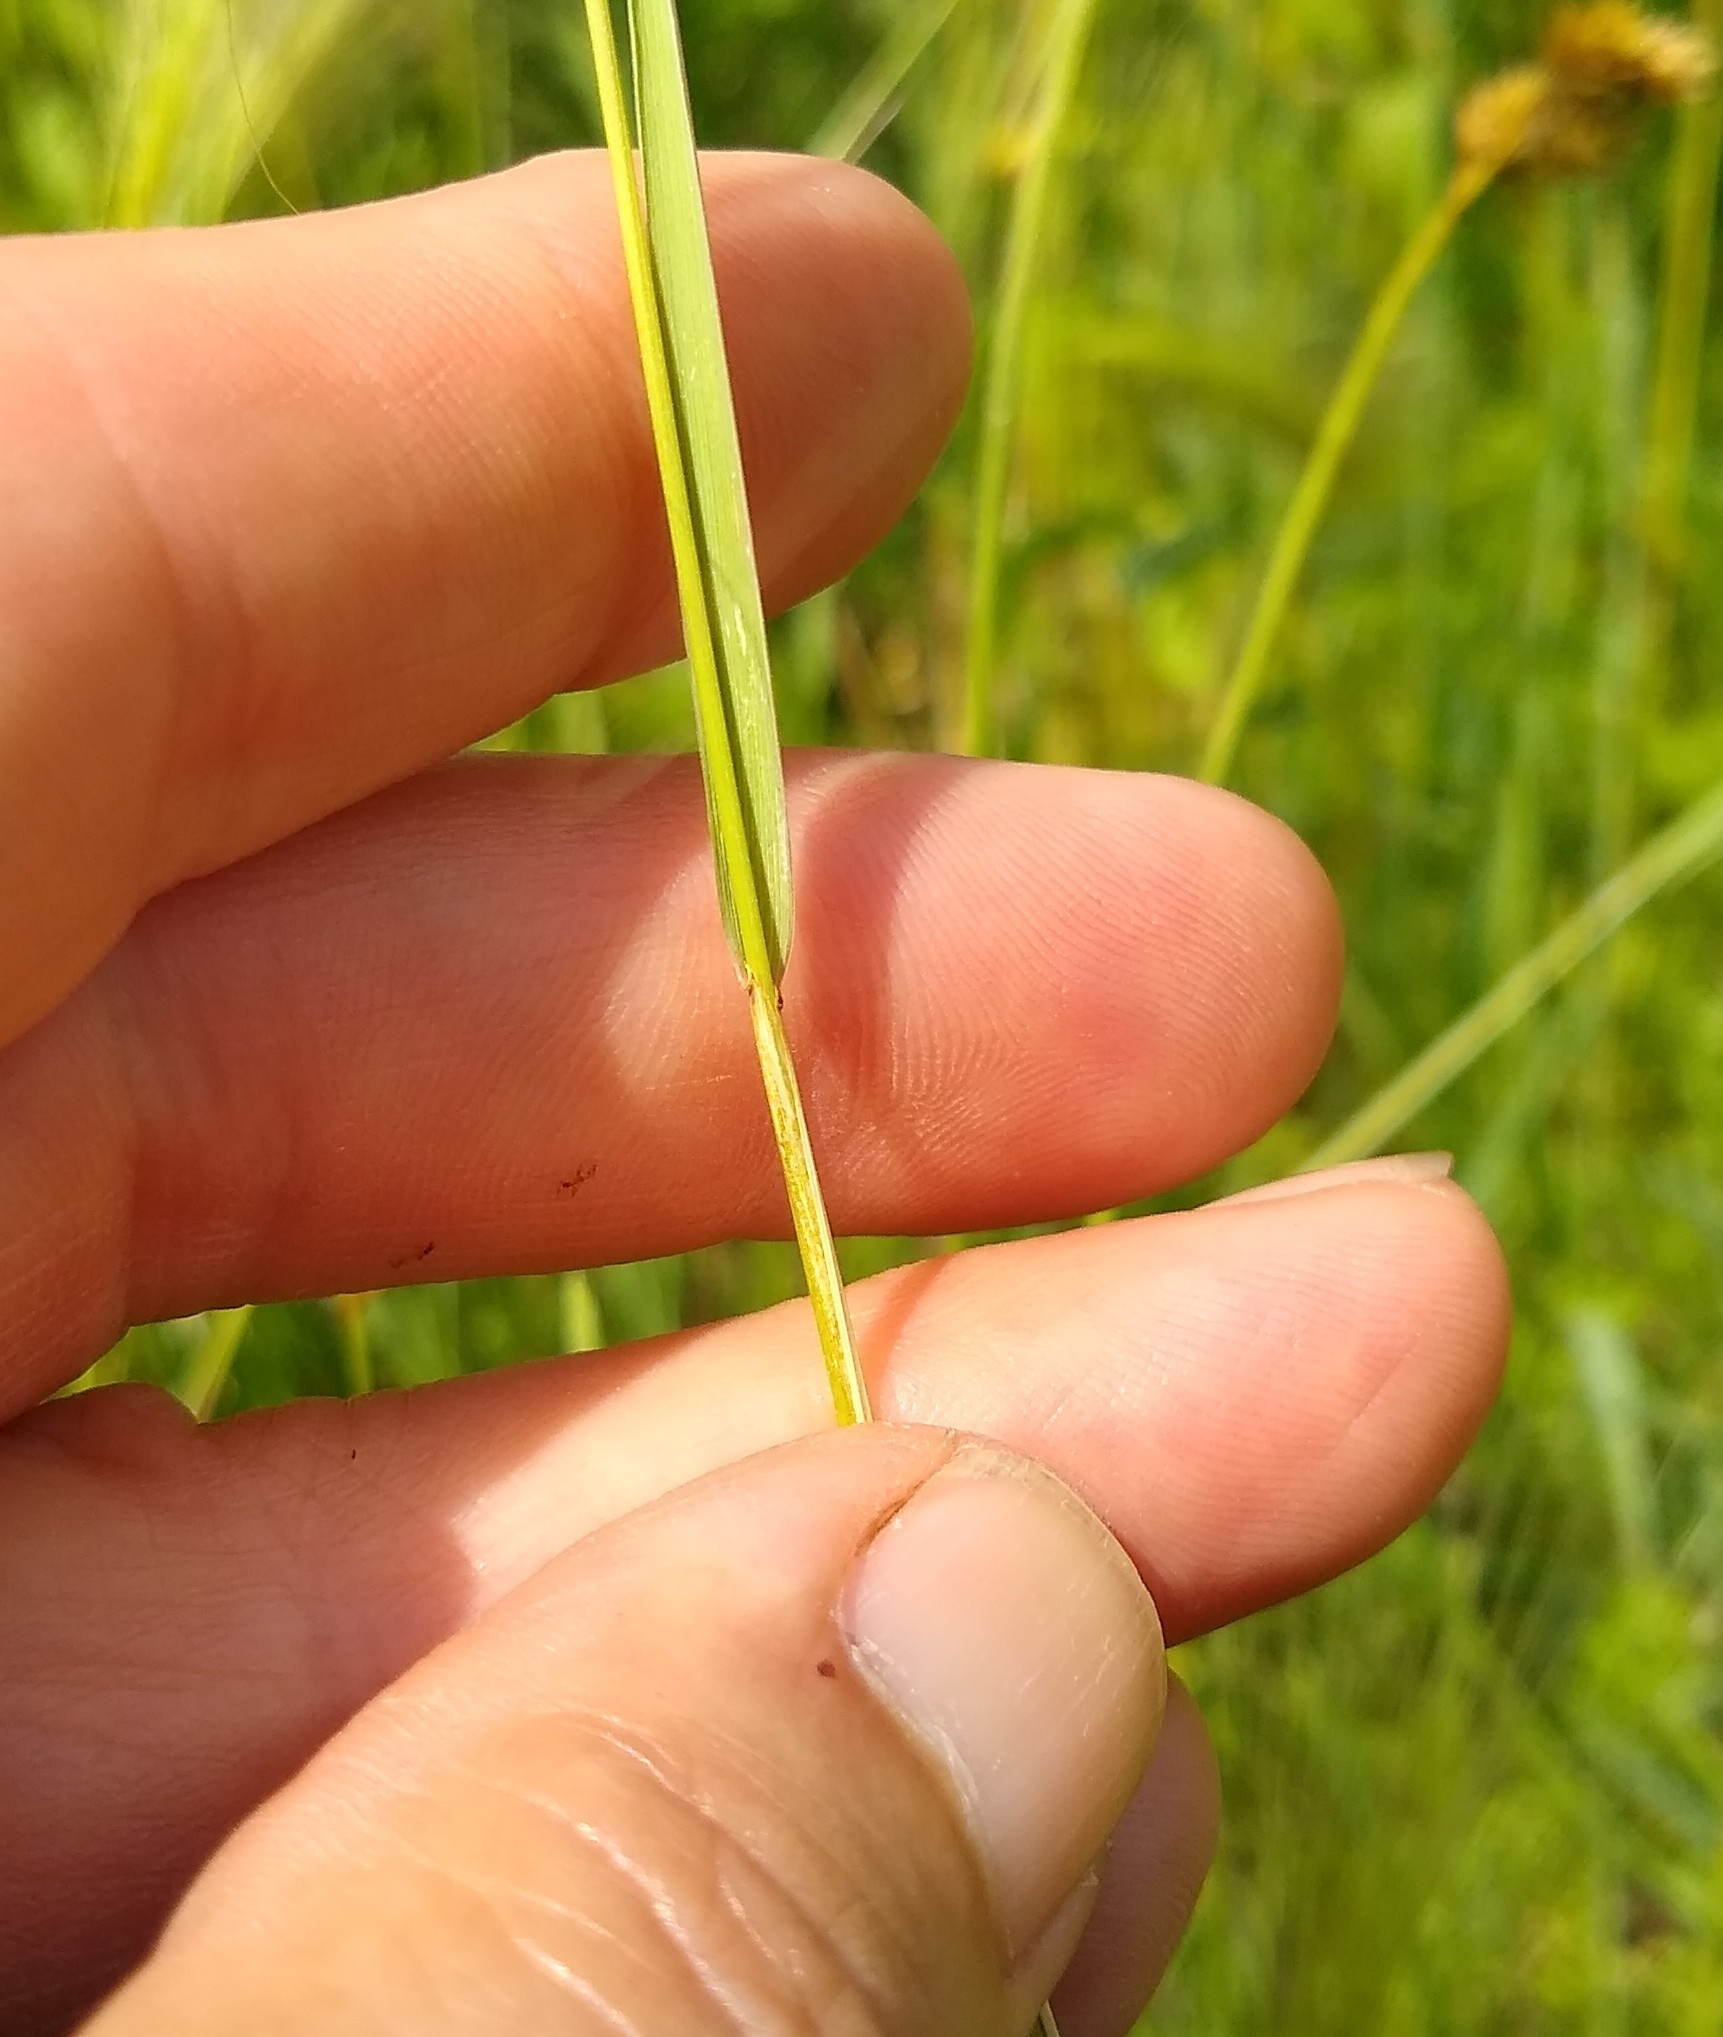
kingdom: Plantae
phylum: Tracheophyta
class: Liliopsida
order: Poales
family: Poaceae
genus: Hordeum
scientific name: Hordeum jubatum
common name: Foxtail barley
